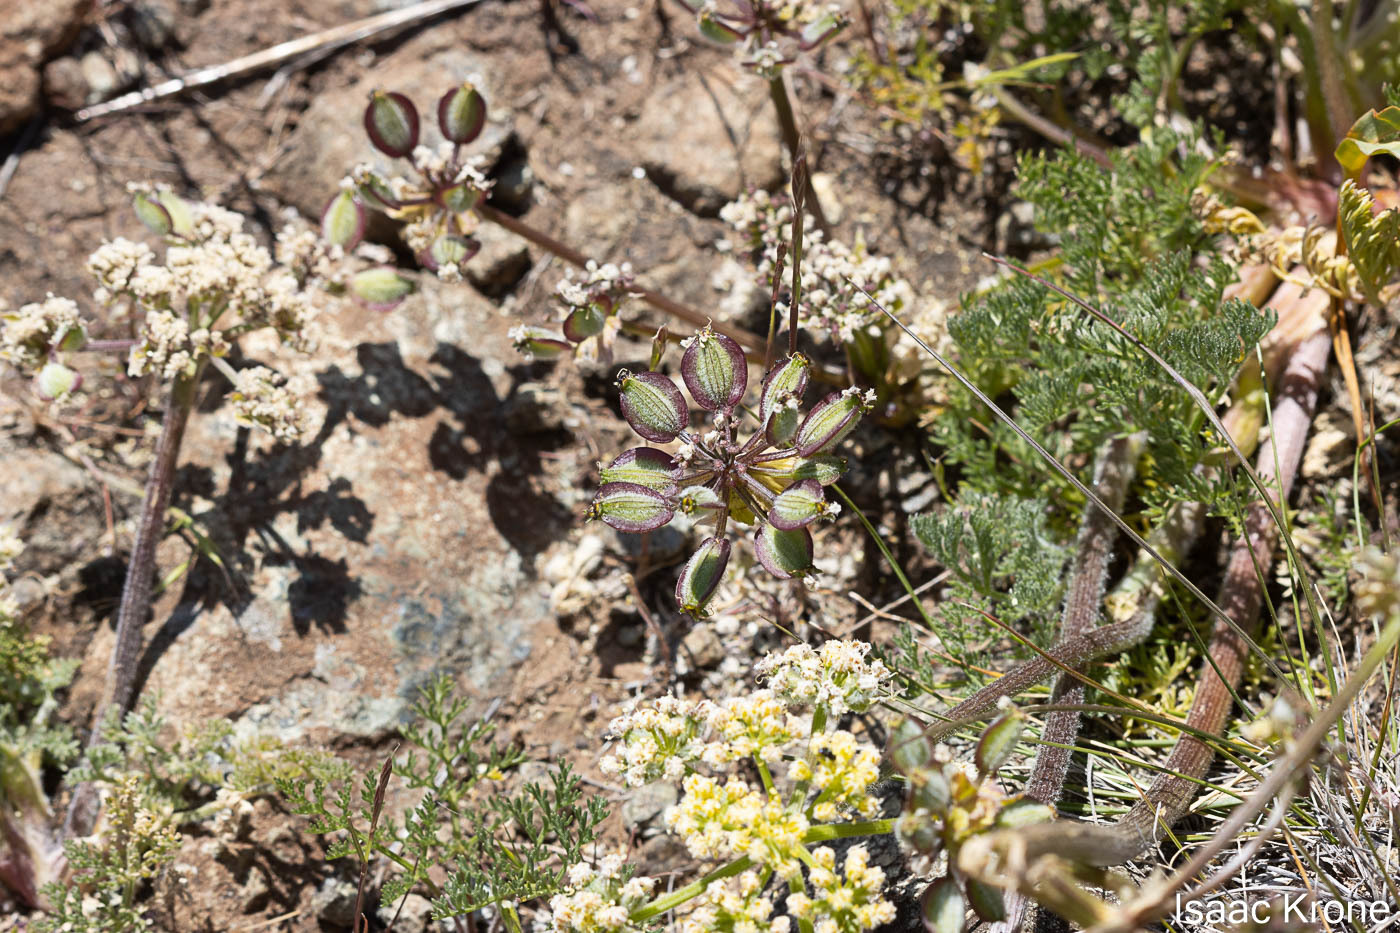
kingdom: Plantae
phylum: Tracheophyta
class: Magnoliopsida
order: Apiales
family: Apiaceae
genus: Lomatium
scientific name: Lomatium dasycarpum
